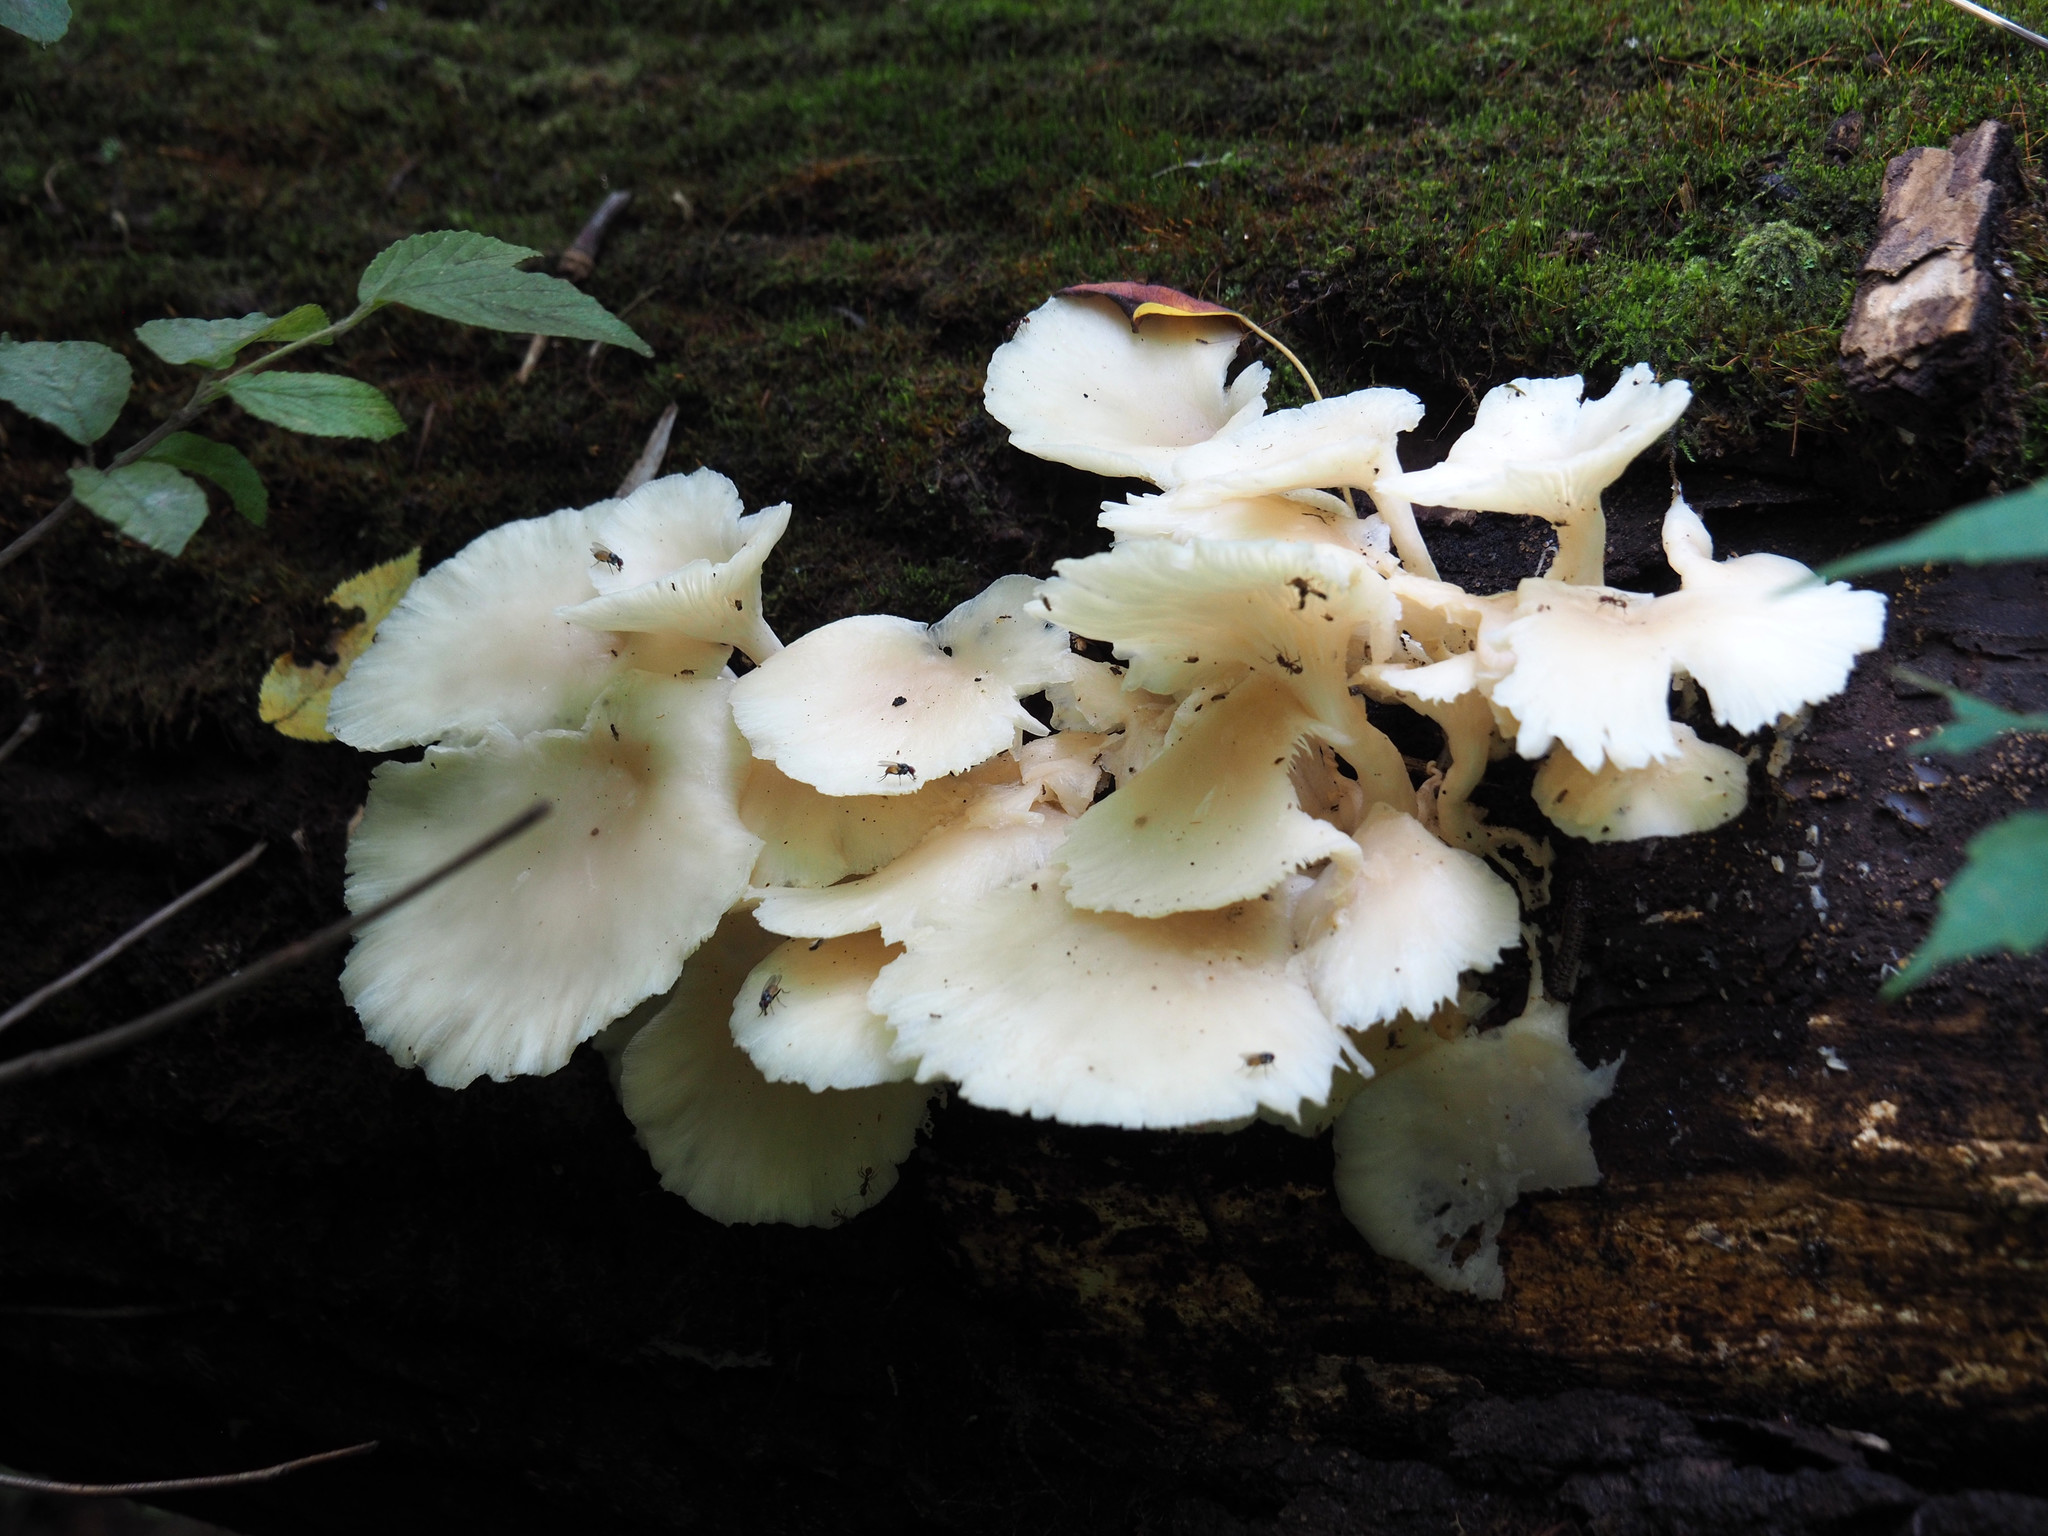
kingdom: Fungi
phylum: Basidiomycota
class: Agaricomycetes
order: Agaricales
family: Marasmiaceae
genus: Pleurocybella
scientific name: Pleurocybella porrigens
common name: Angel's wings
